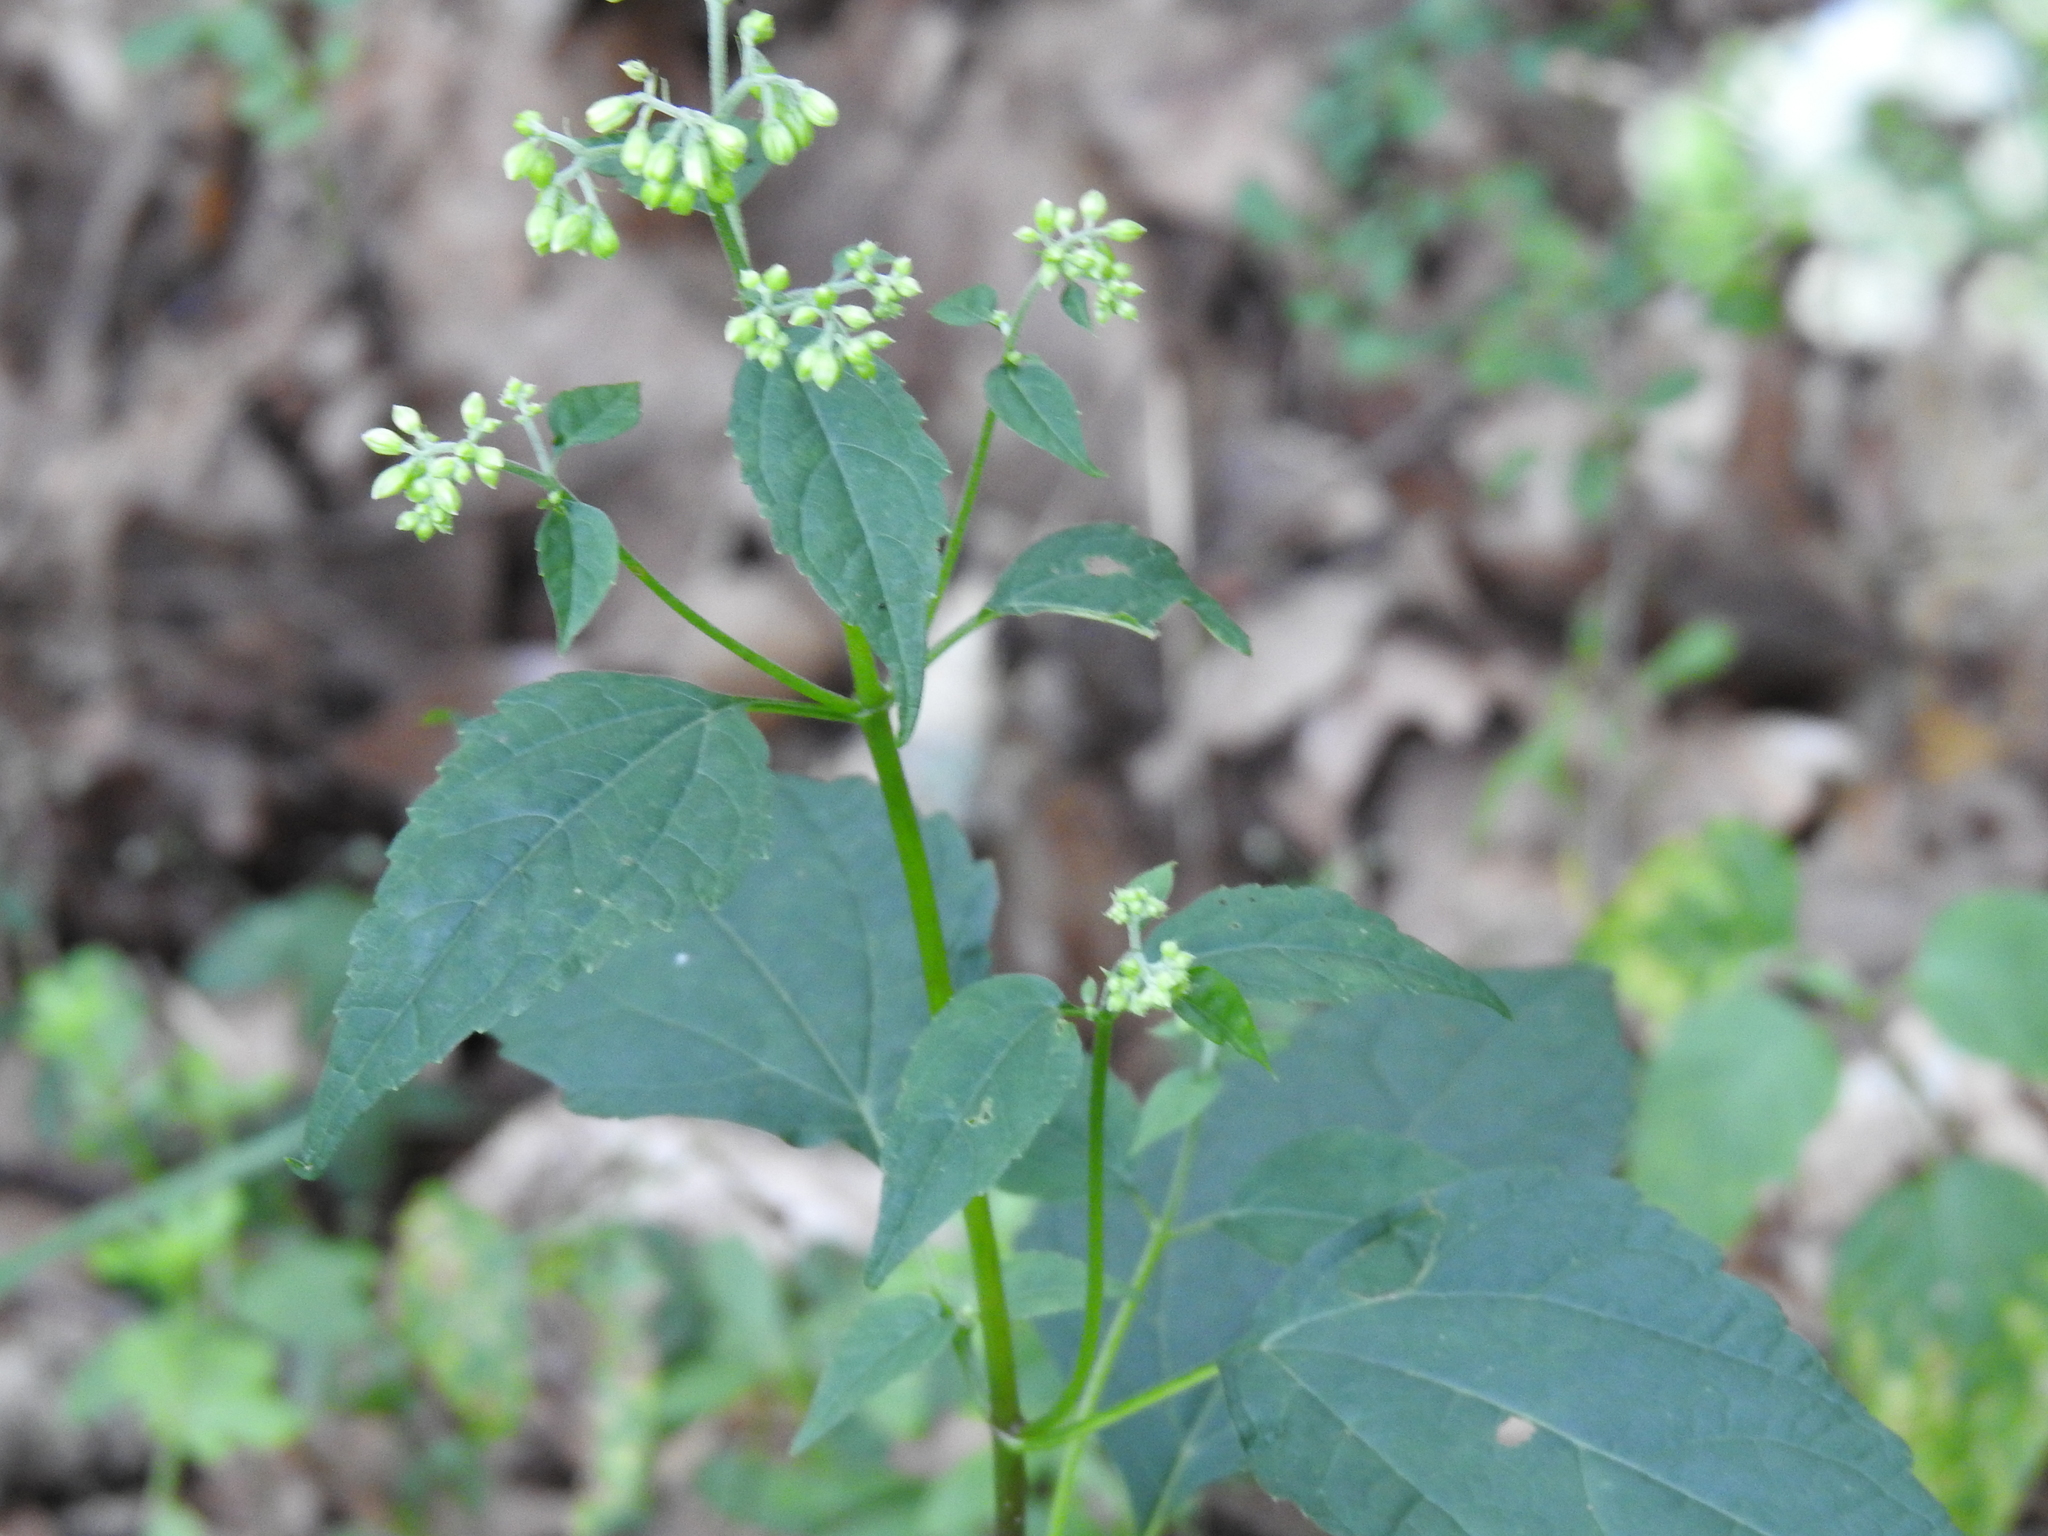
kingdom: Plantae
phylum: Tracheophyta
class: Magnoliopsida
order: Asterales
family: Asteraceae
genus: Ageratina
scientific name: Ageratina altissima
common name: White snakeroot
